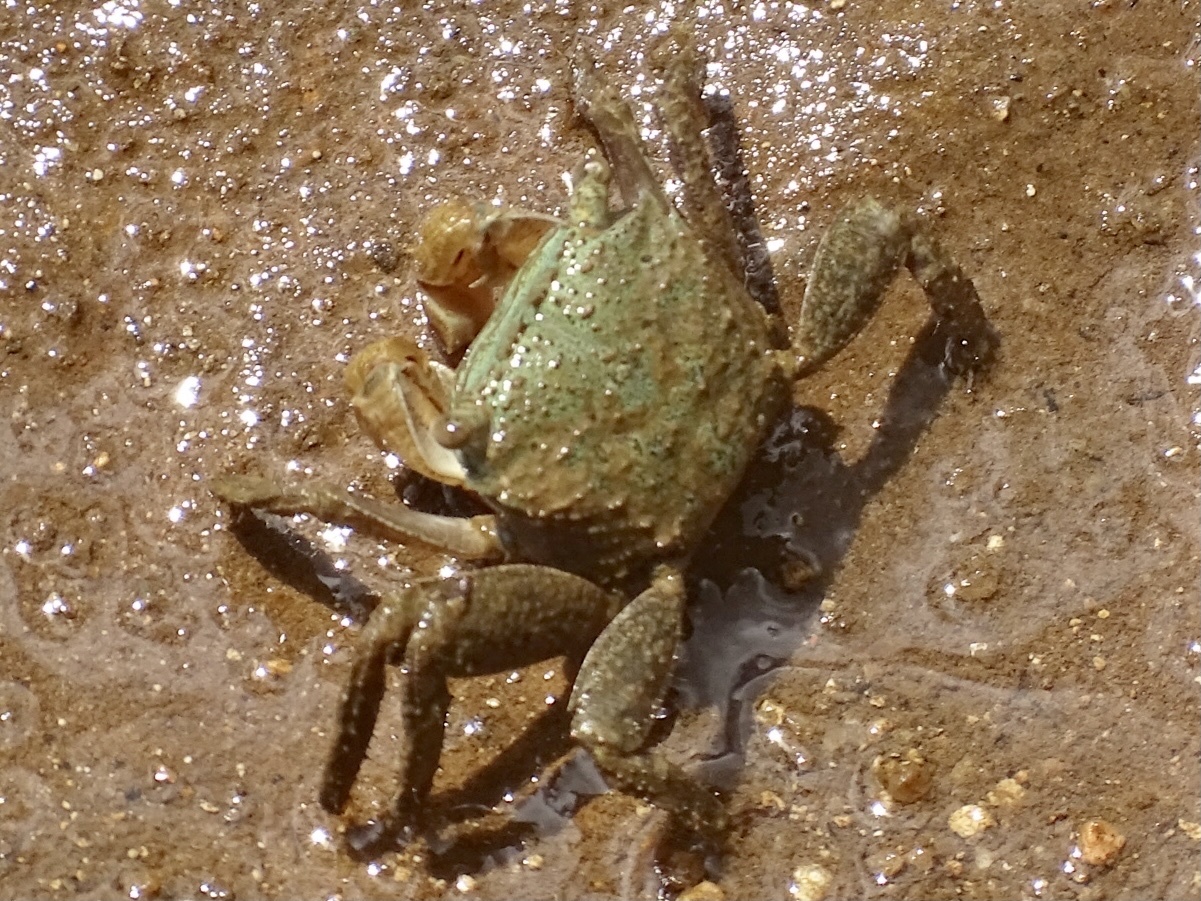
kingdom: Animalia
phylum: Arthropoda
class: Malacostraca
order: Decapoda
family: Sesarmidae
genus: Parasesarma
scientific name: Parasesarma bidens
